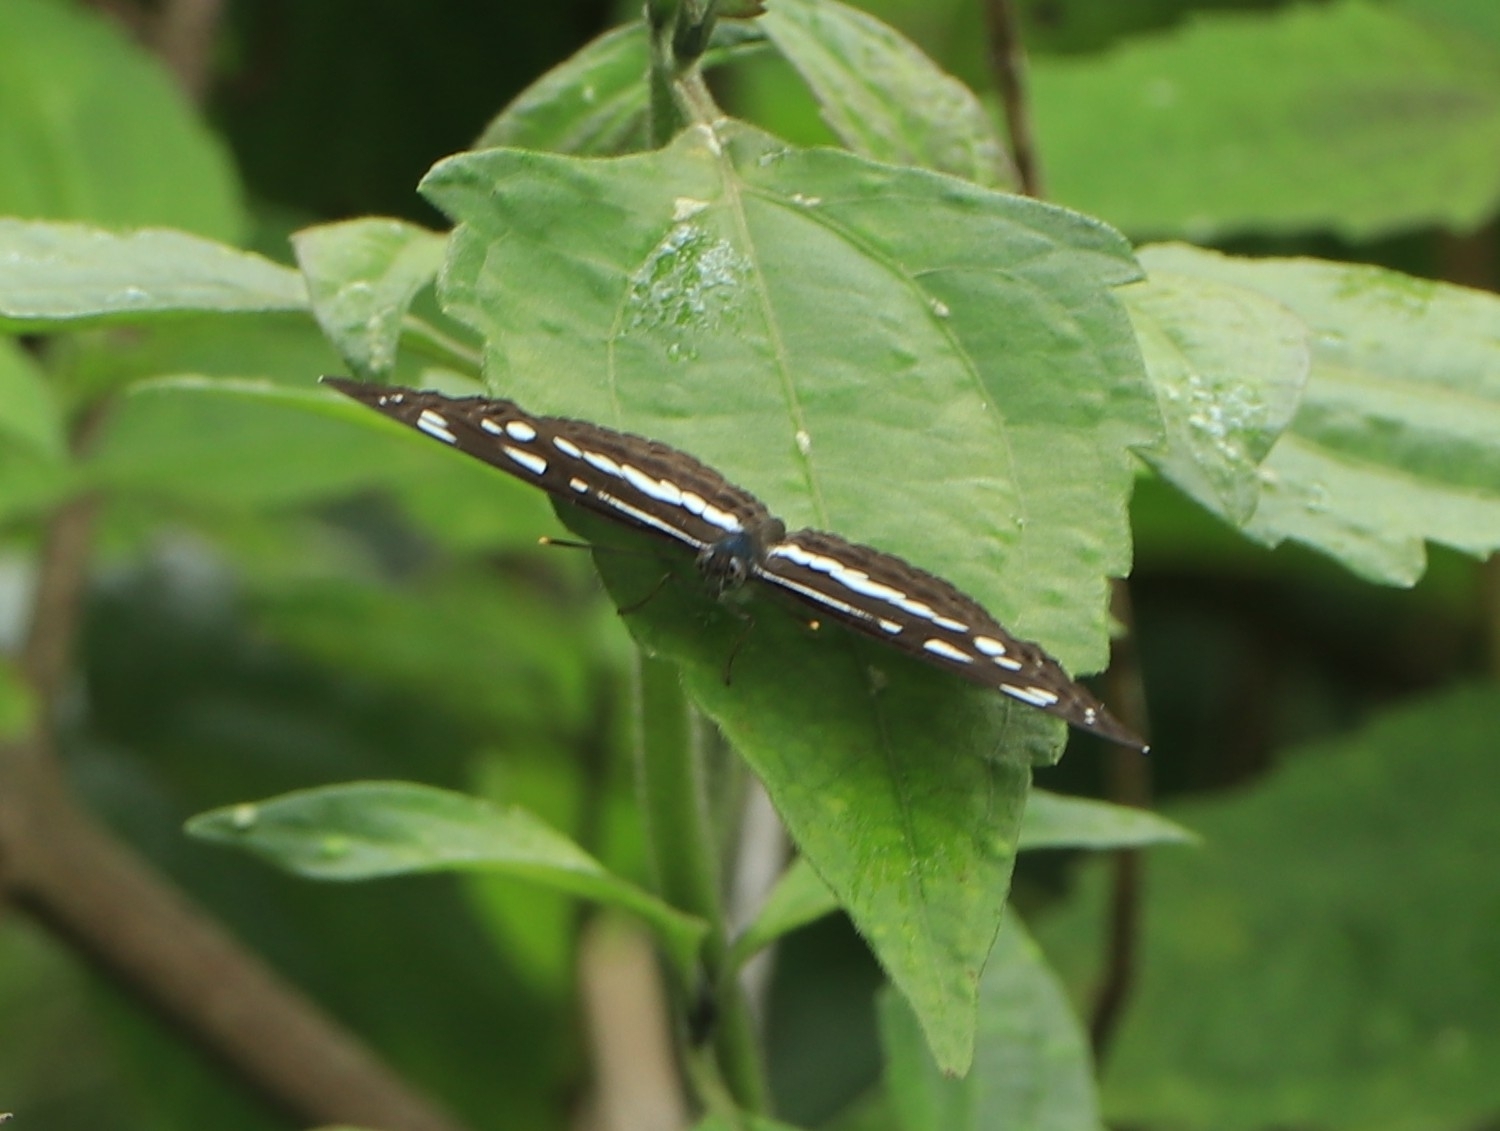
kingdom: Animalia
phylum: Arthropoda
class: Insecta
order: Lepidoptera
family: Nymphalidae
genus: Neptis
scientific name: Neptis jumbah
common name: Chestnut-streaked sailer
